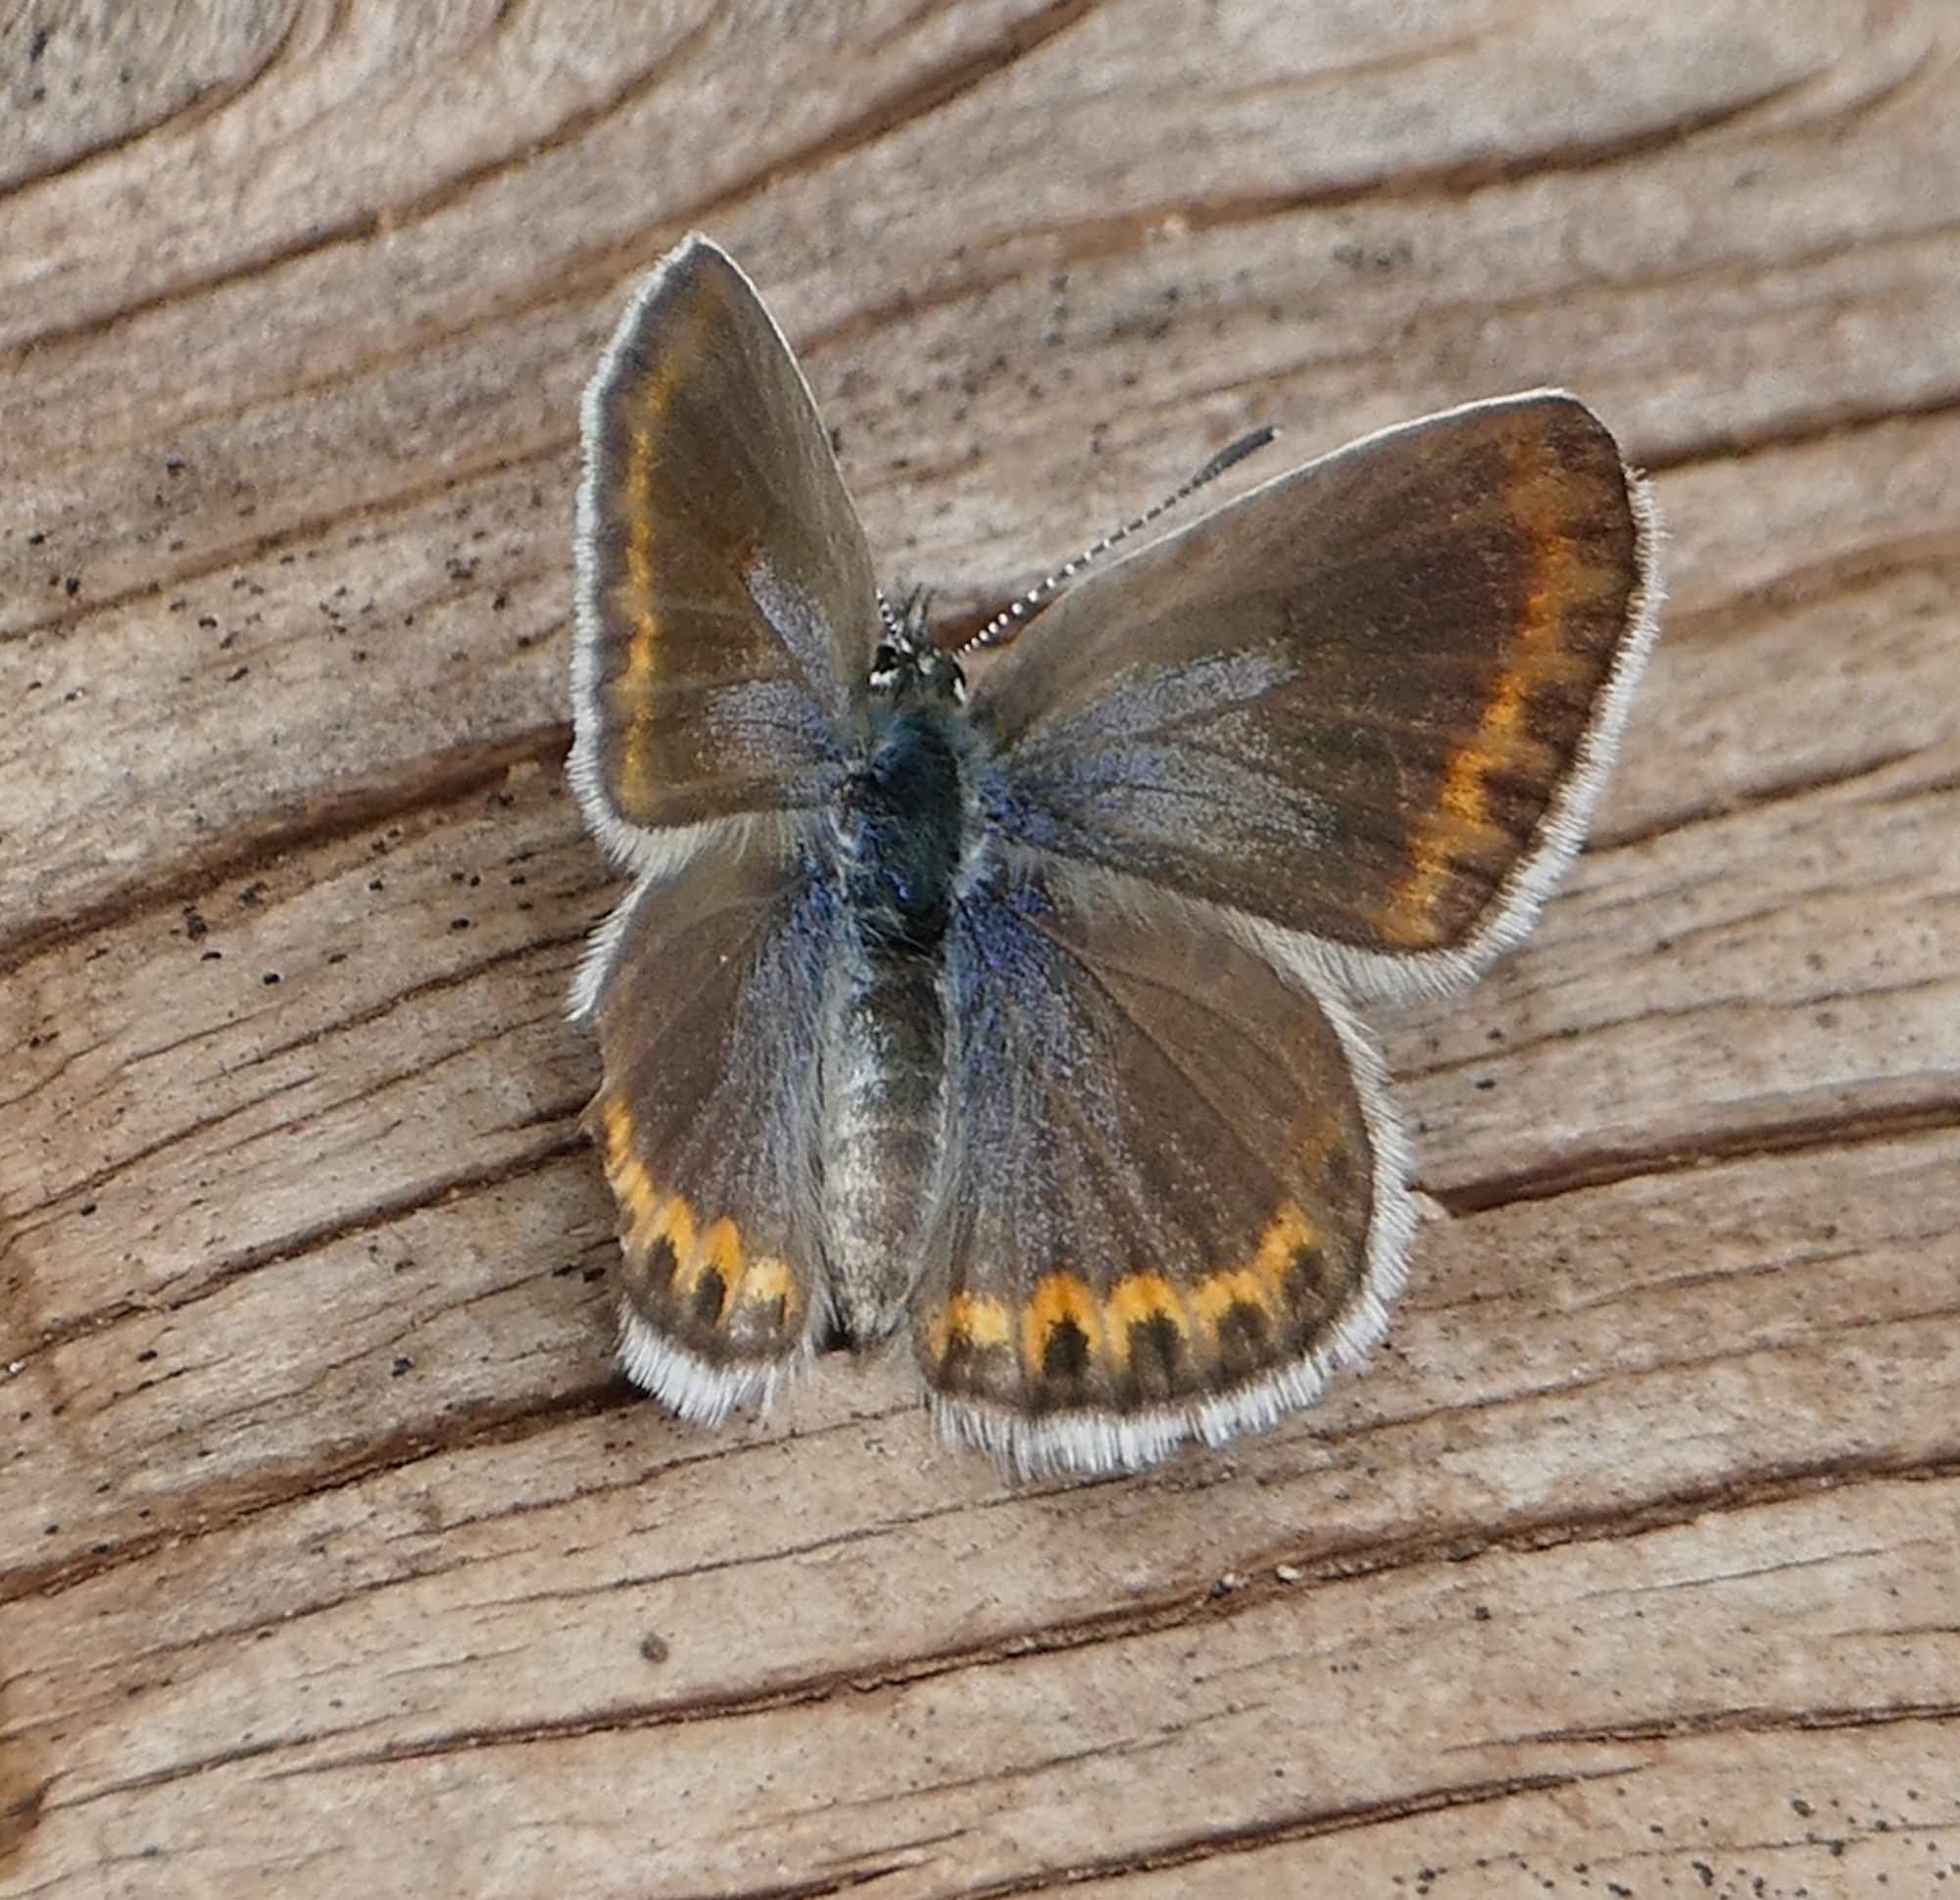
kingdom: Animalia
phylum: Arthropoda
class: Insecta
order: Lepidoptera
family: Lycaenidae
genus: Lycaeides
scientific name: Lycaeides melissa
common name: Melissa blue
